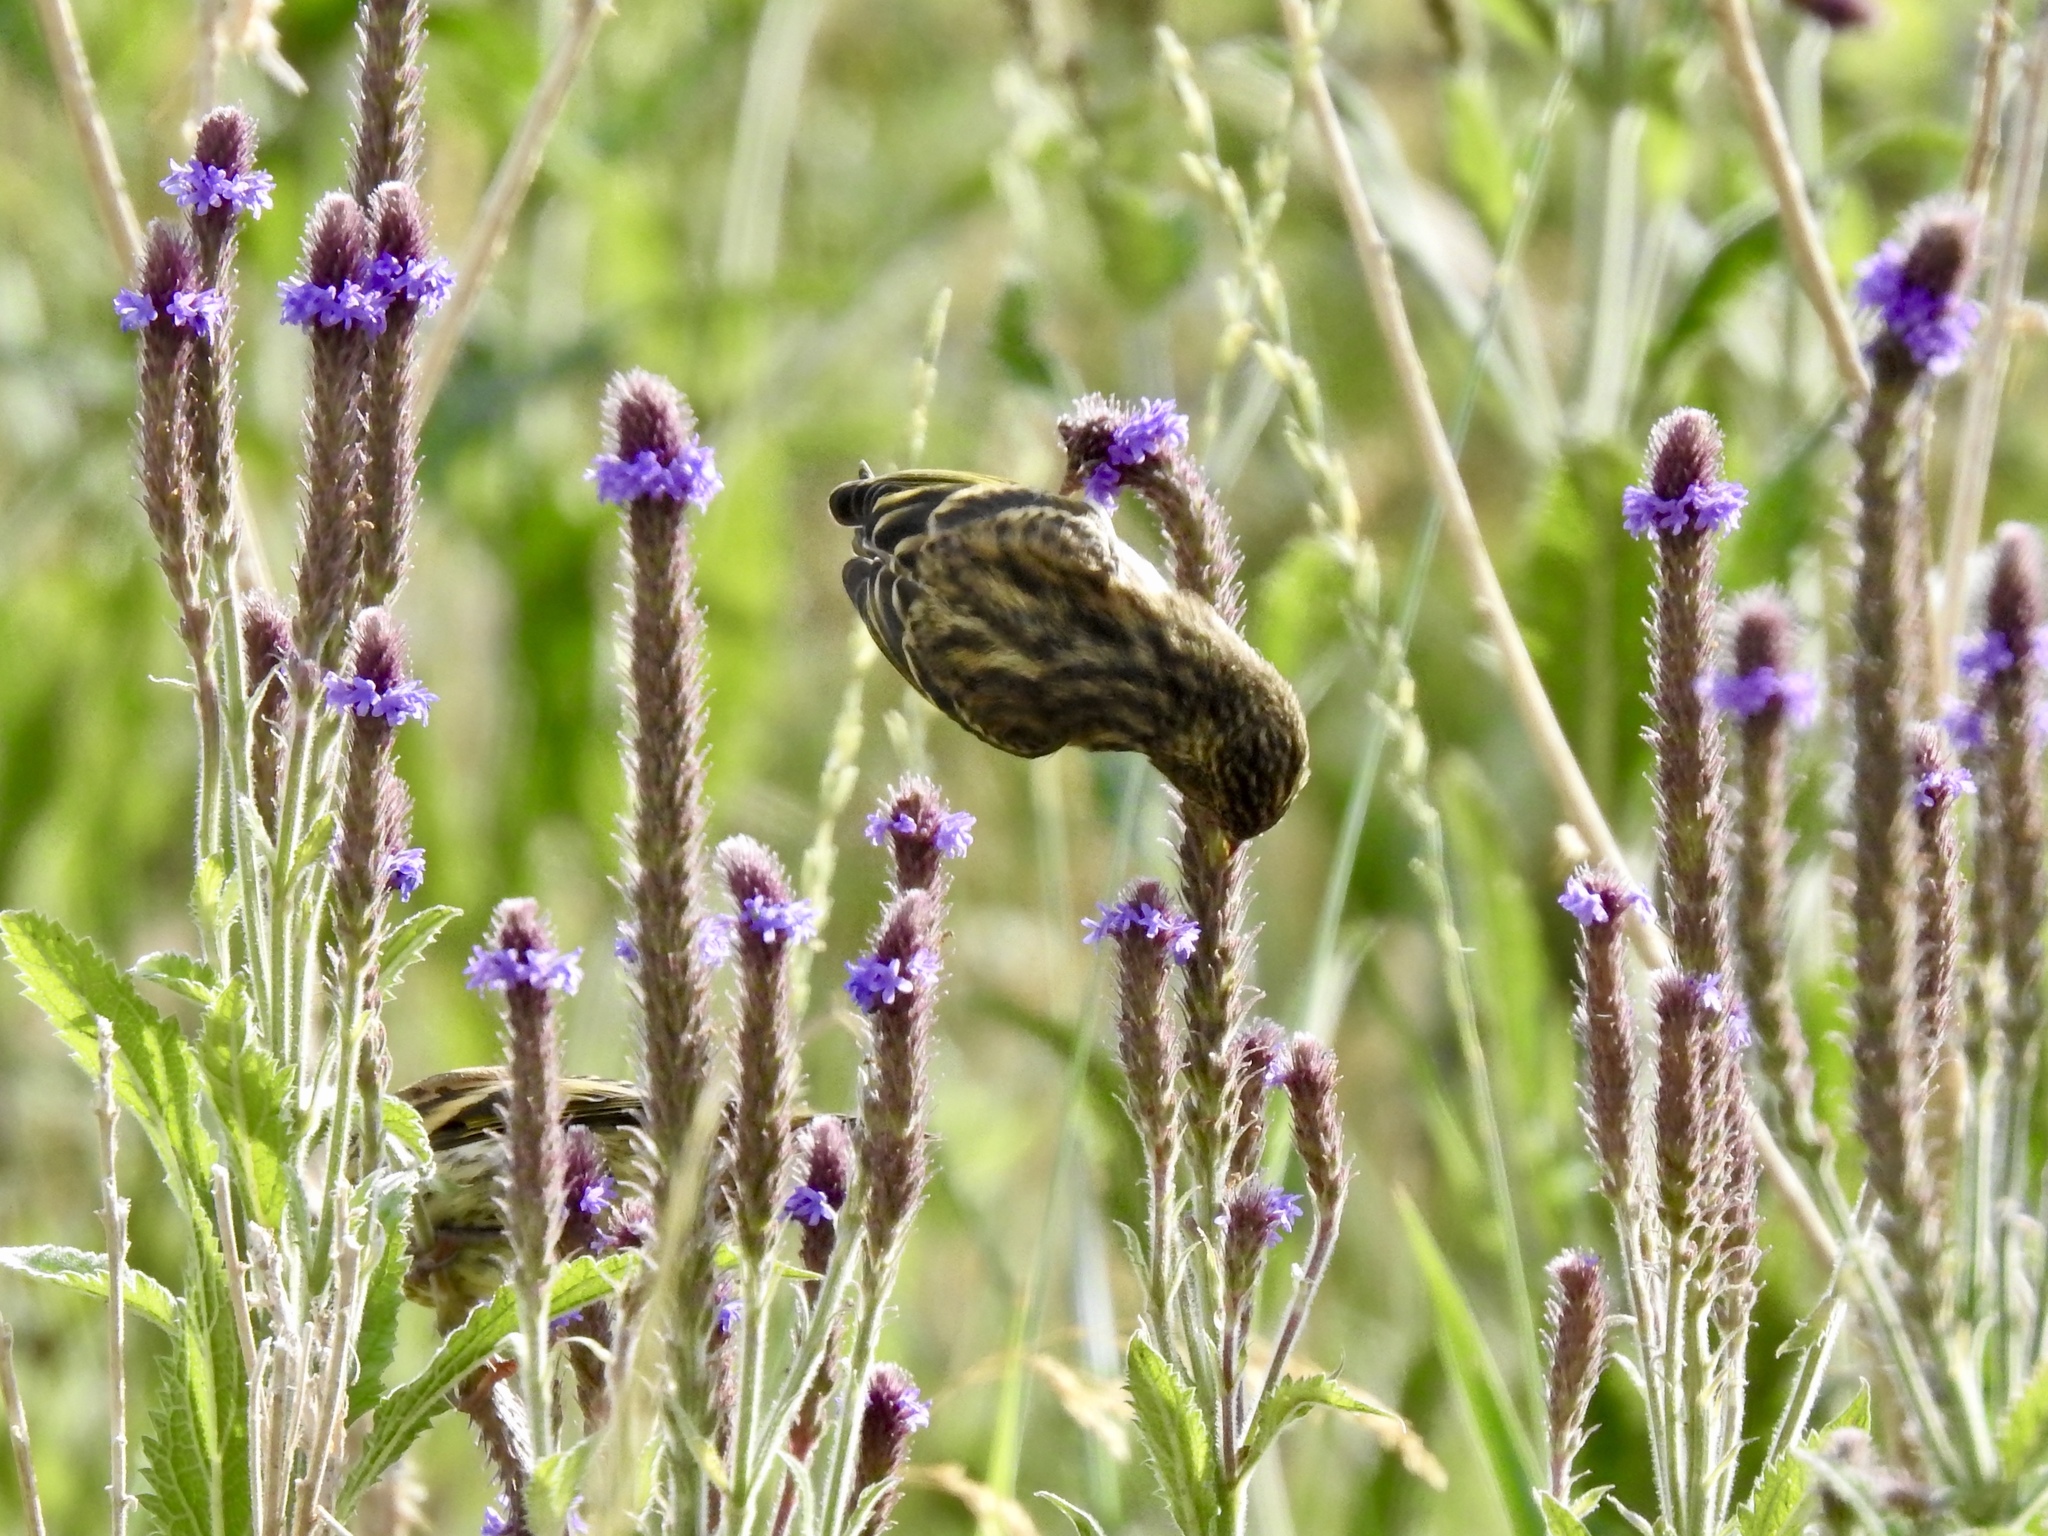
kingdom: Animalia
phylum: Chordata
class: Aves
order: Passeriformes
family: Fringillidae
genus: Spinus
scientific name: Spinus pinus
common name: Pine siskin
